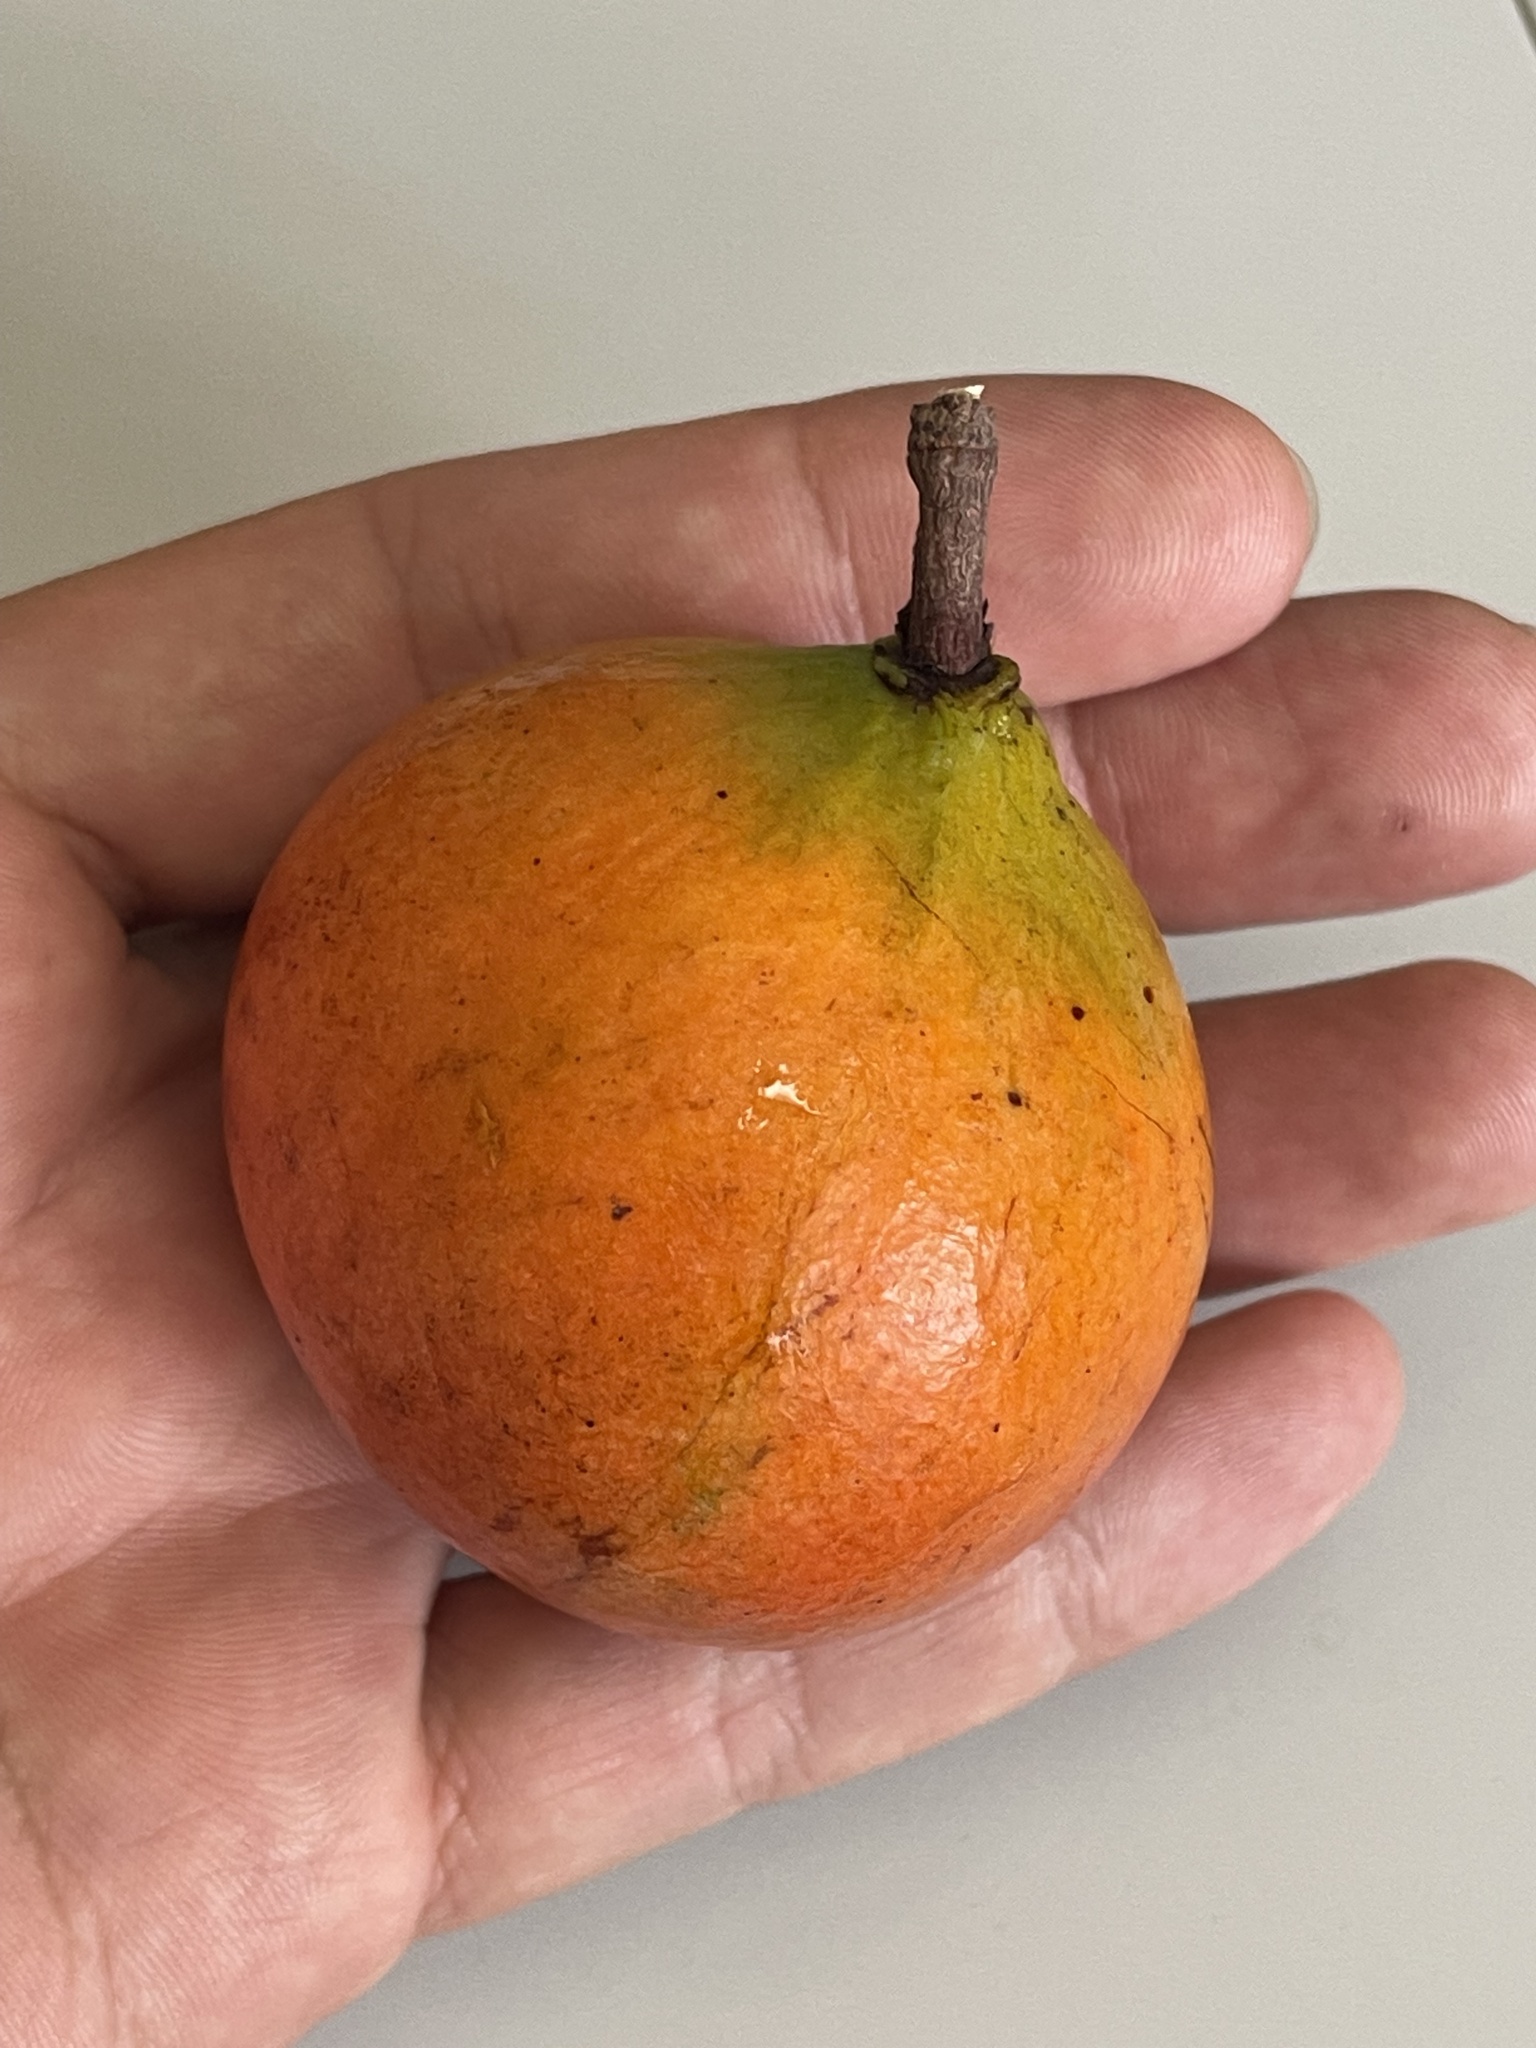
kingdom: Plantae
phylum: Tracheophyta
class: Magnoliopsida
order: Celastrales
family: Celastraceae
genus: Salacia
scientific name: Salacia kraussii
